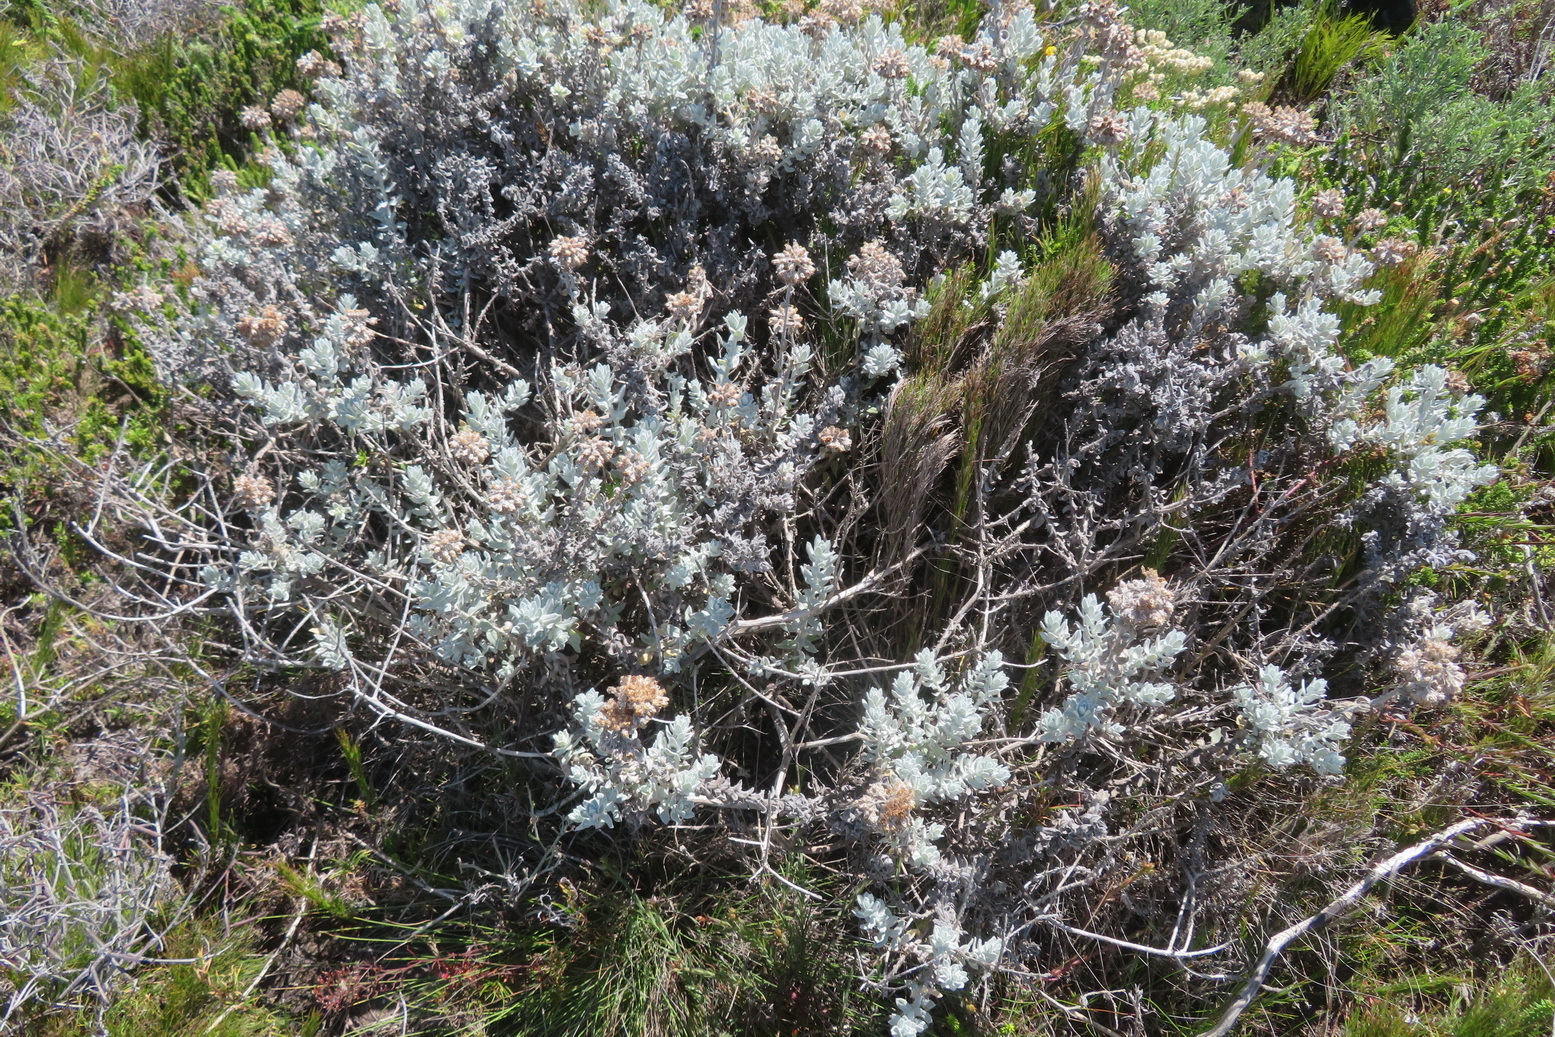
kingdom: Plantae
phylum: Tracheophyta
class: Magnoliopsida
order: Asterales
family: Asteraceae
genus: Helichrysum
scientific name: Helichrysum dasyanthum
